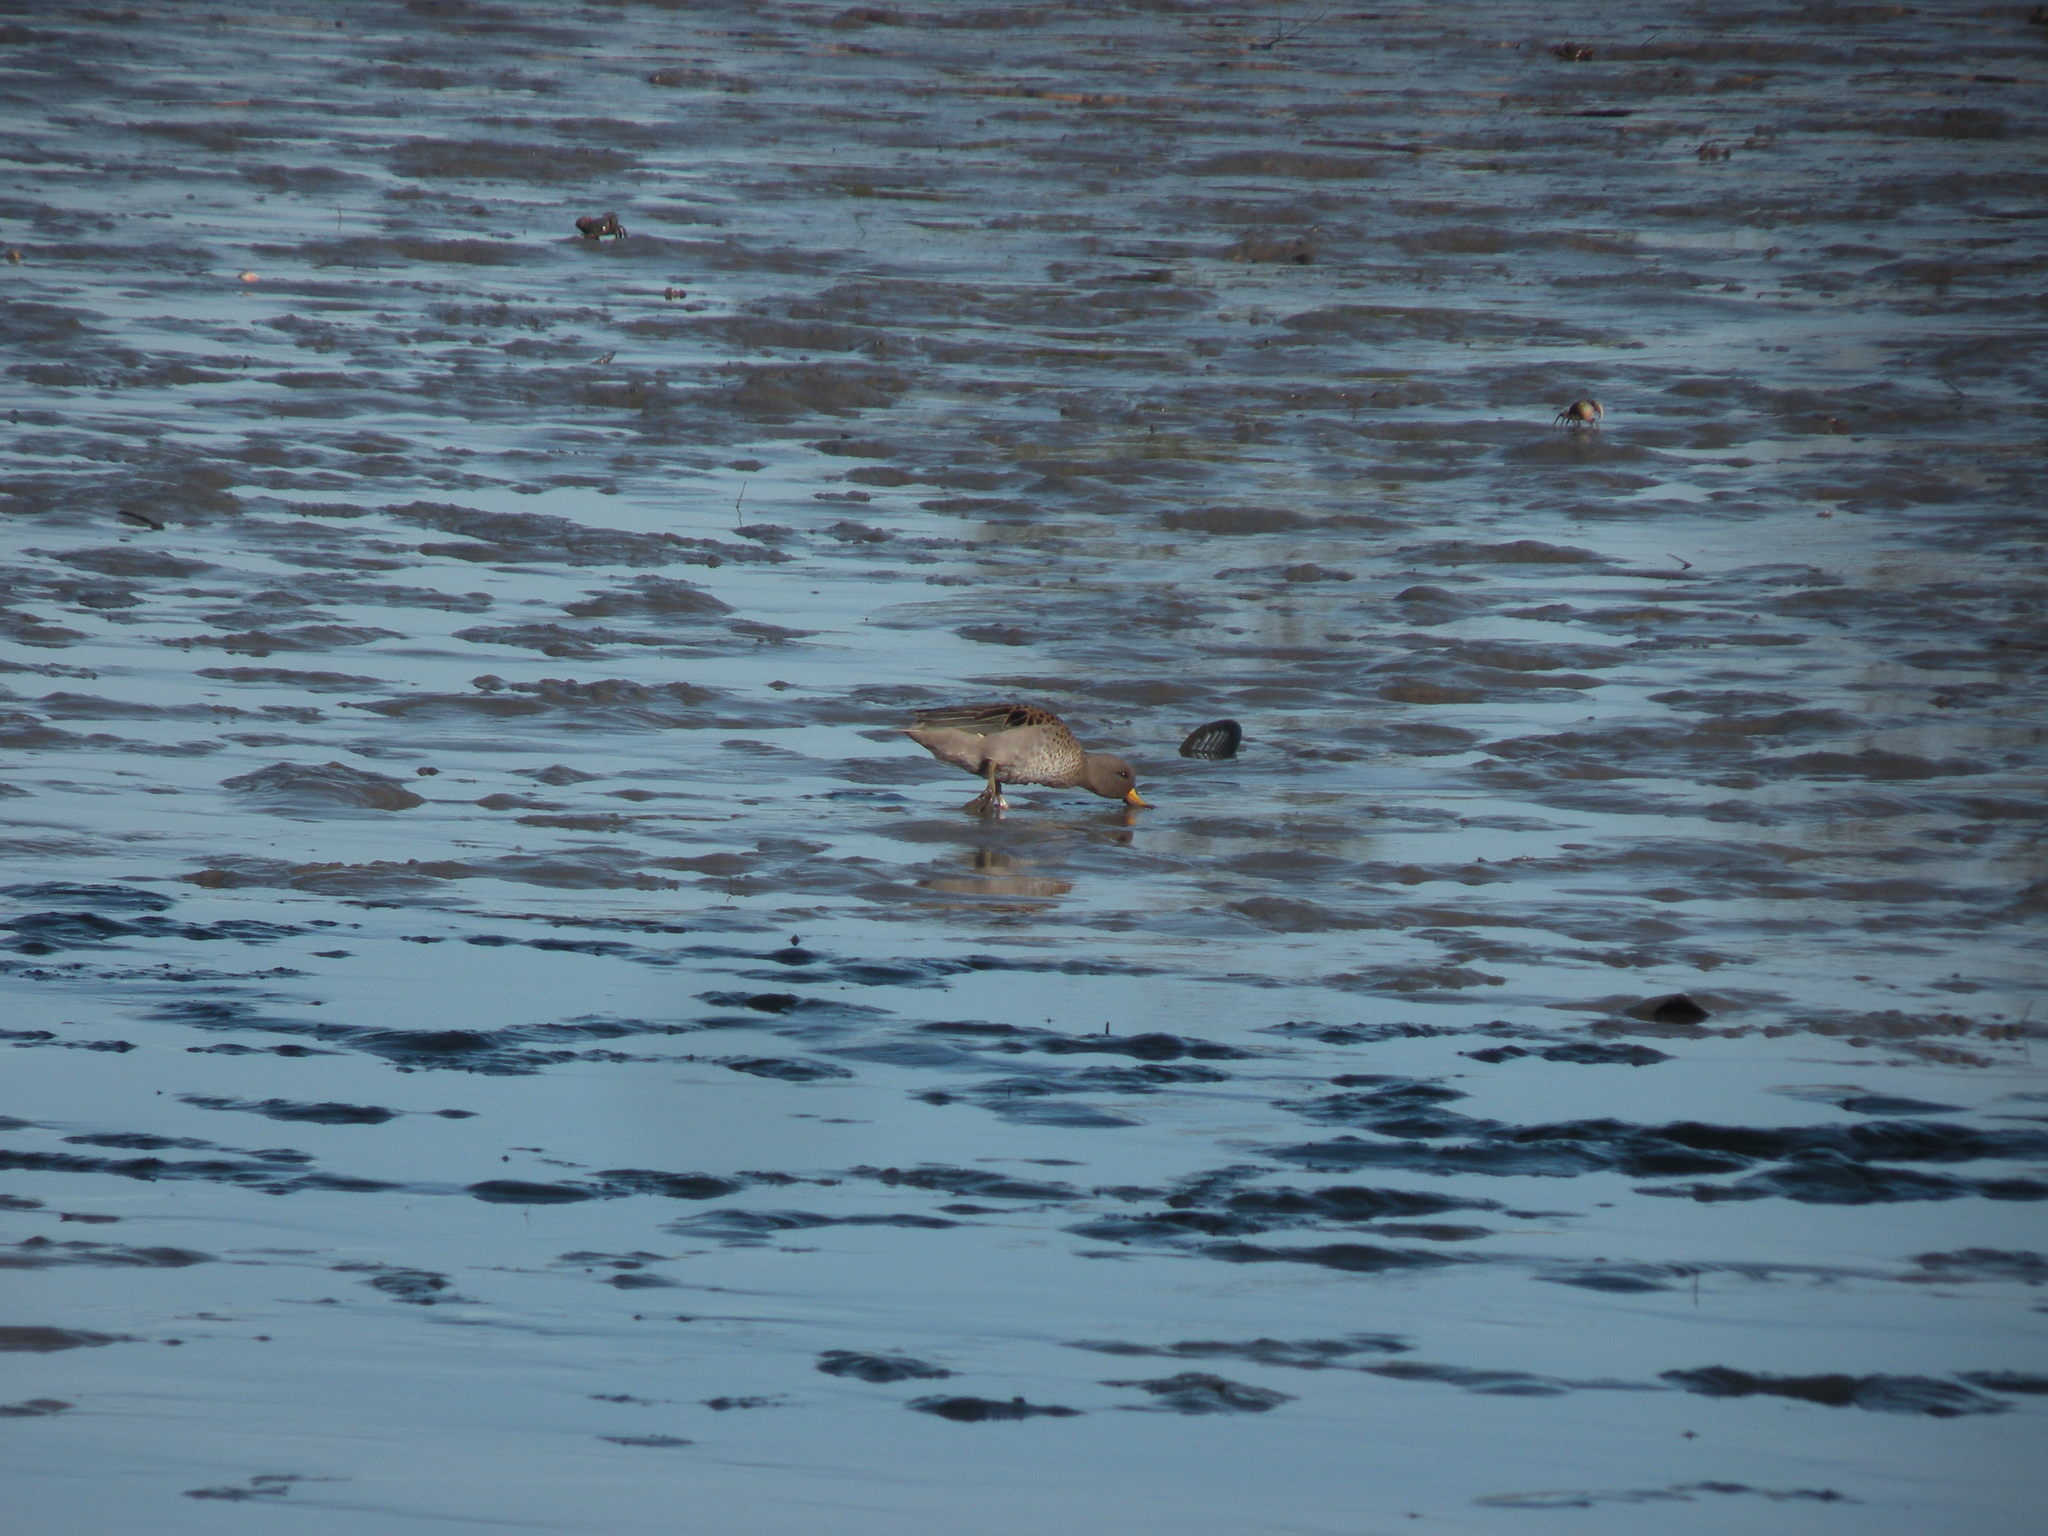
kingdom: Animalia
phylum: Chordata
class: Aves
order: Anseriformes
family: Anatidae
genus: Anas
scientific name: Anas flavirostris
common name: Yellow-billed teal
